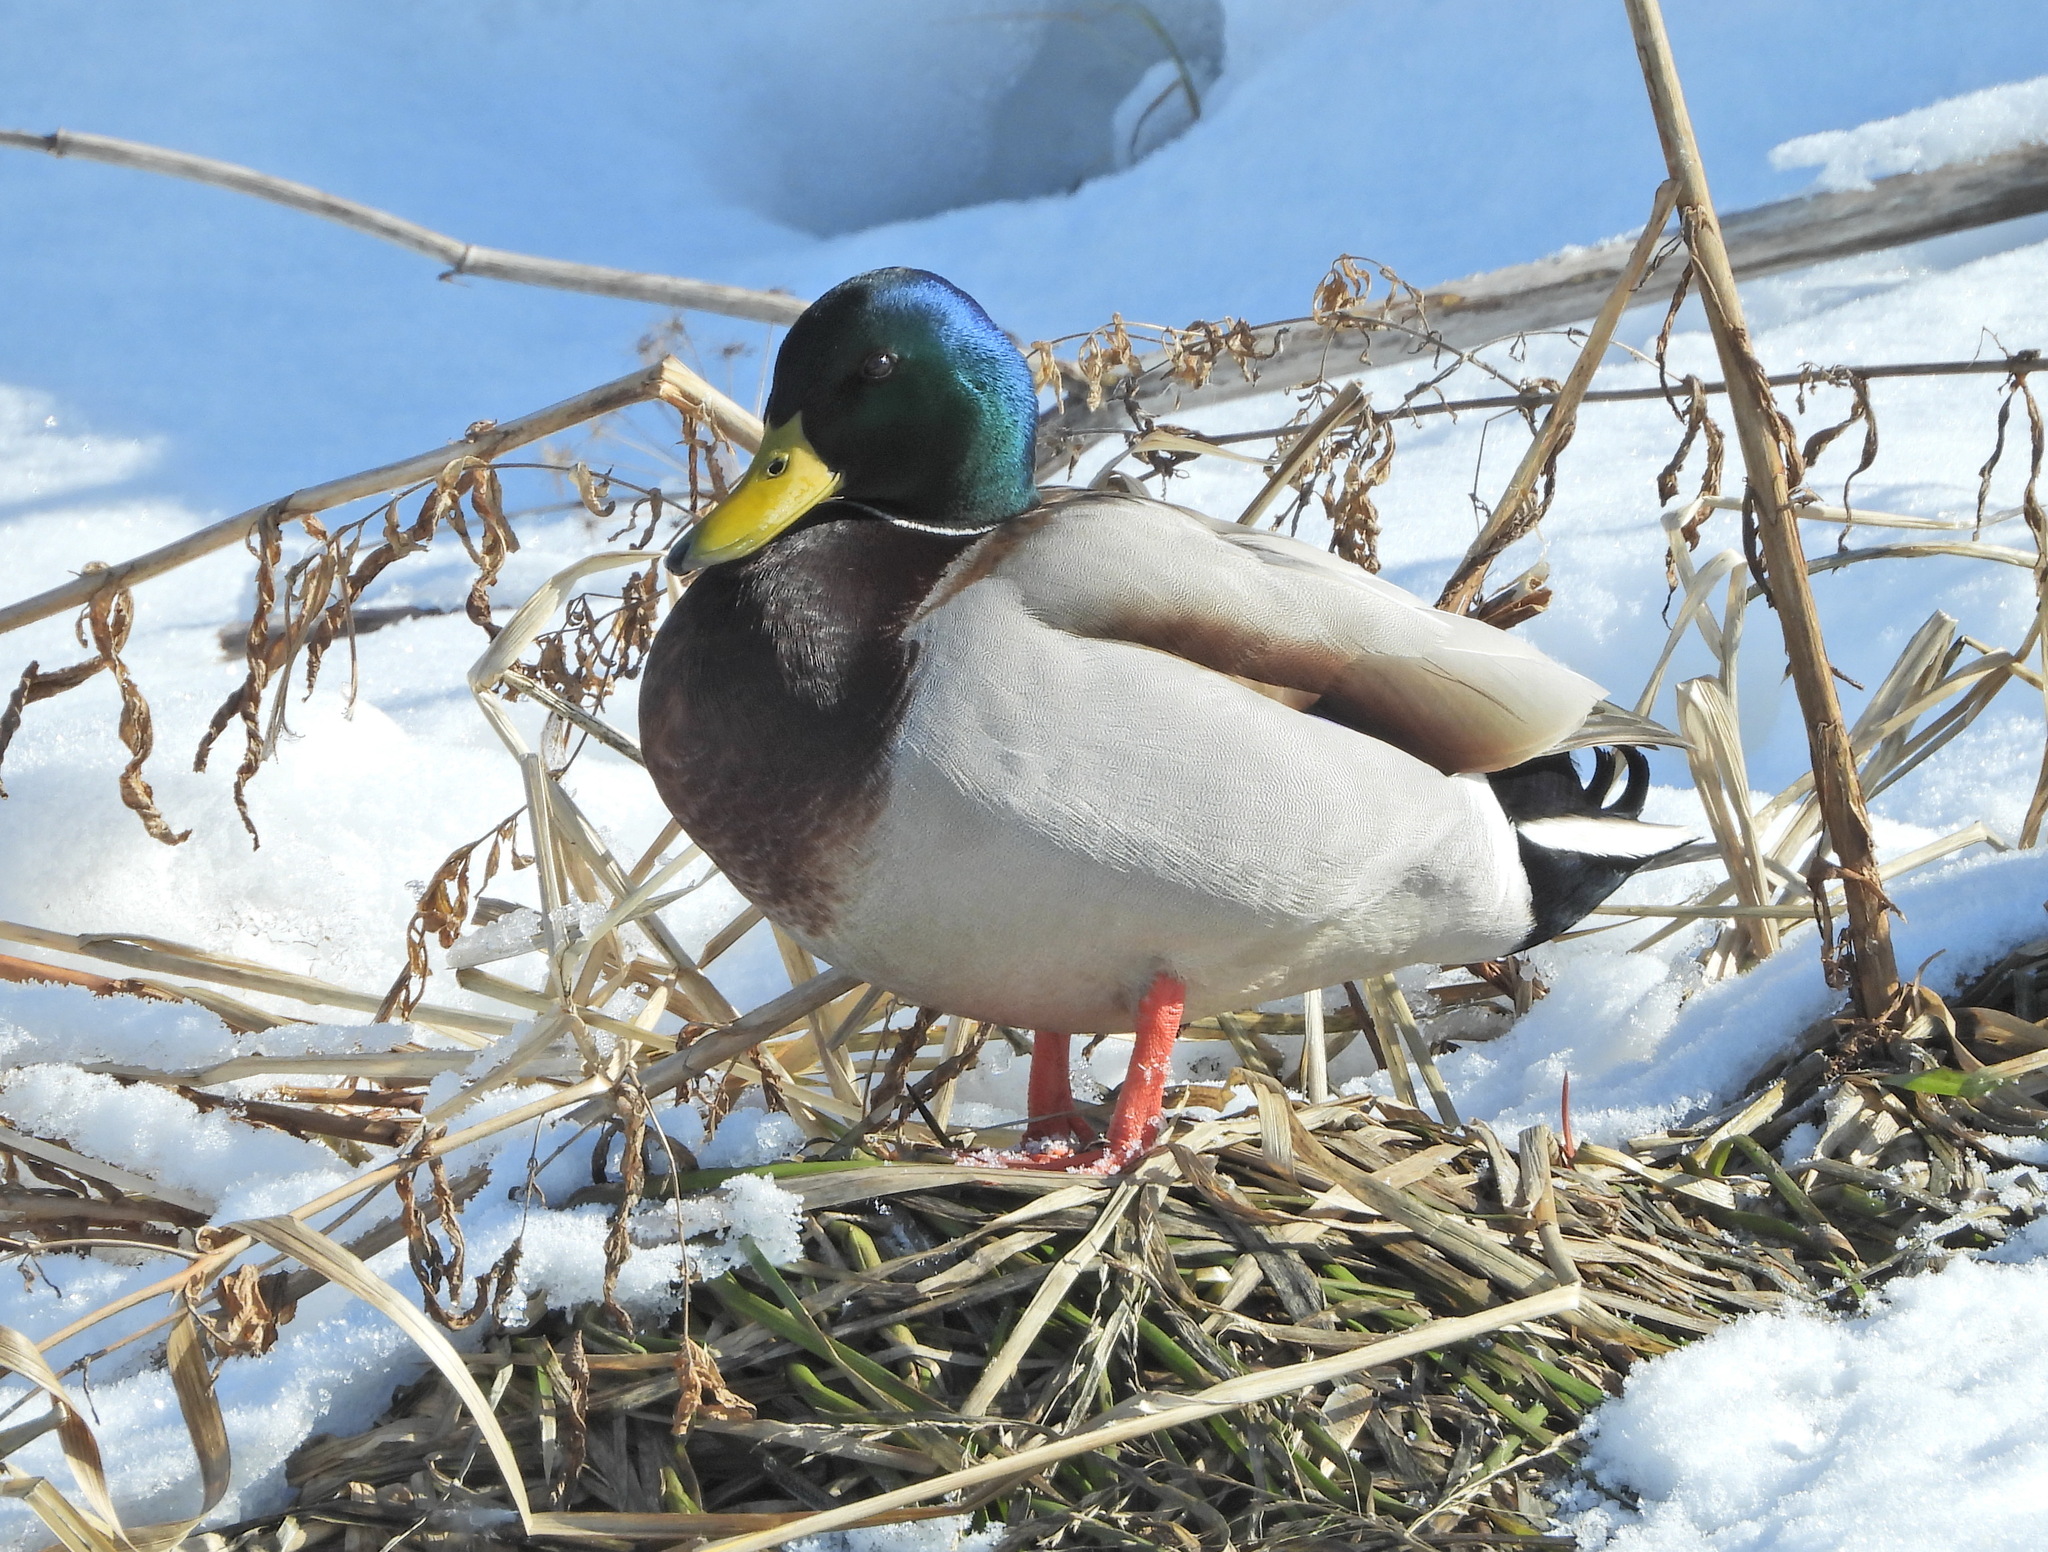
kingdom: Animalia
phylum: Chordata
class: Aves
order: Anseriformes
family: Anatidae
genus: Anas
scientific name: Anas platyrhynchos
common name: Mallard
